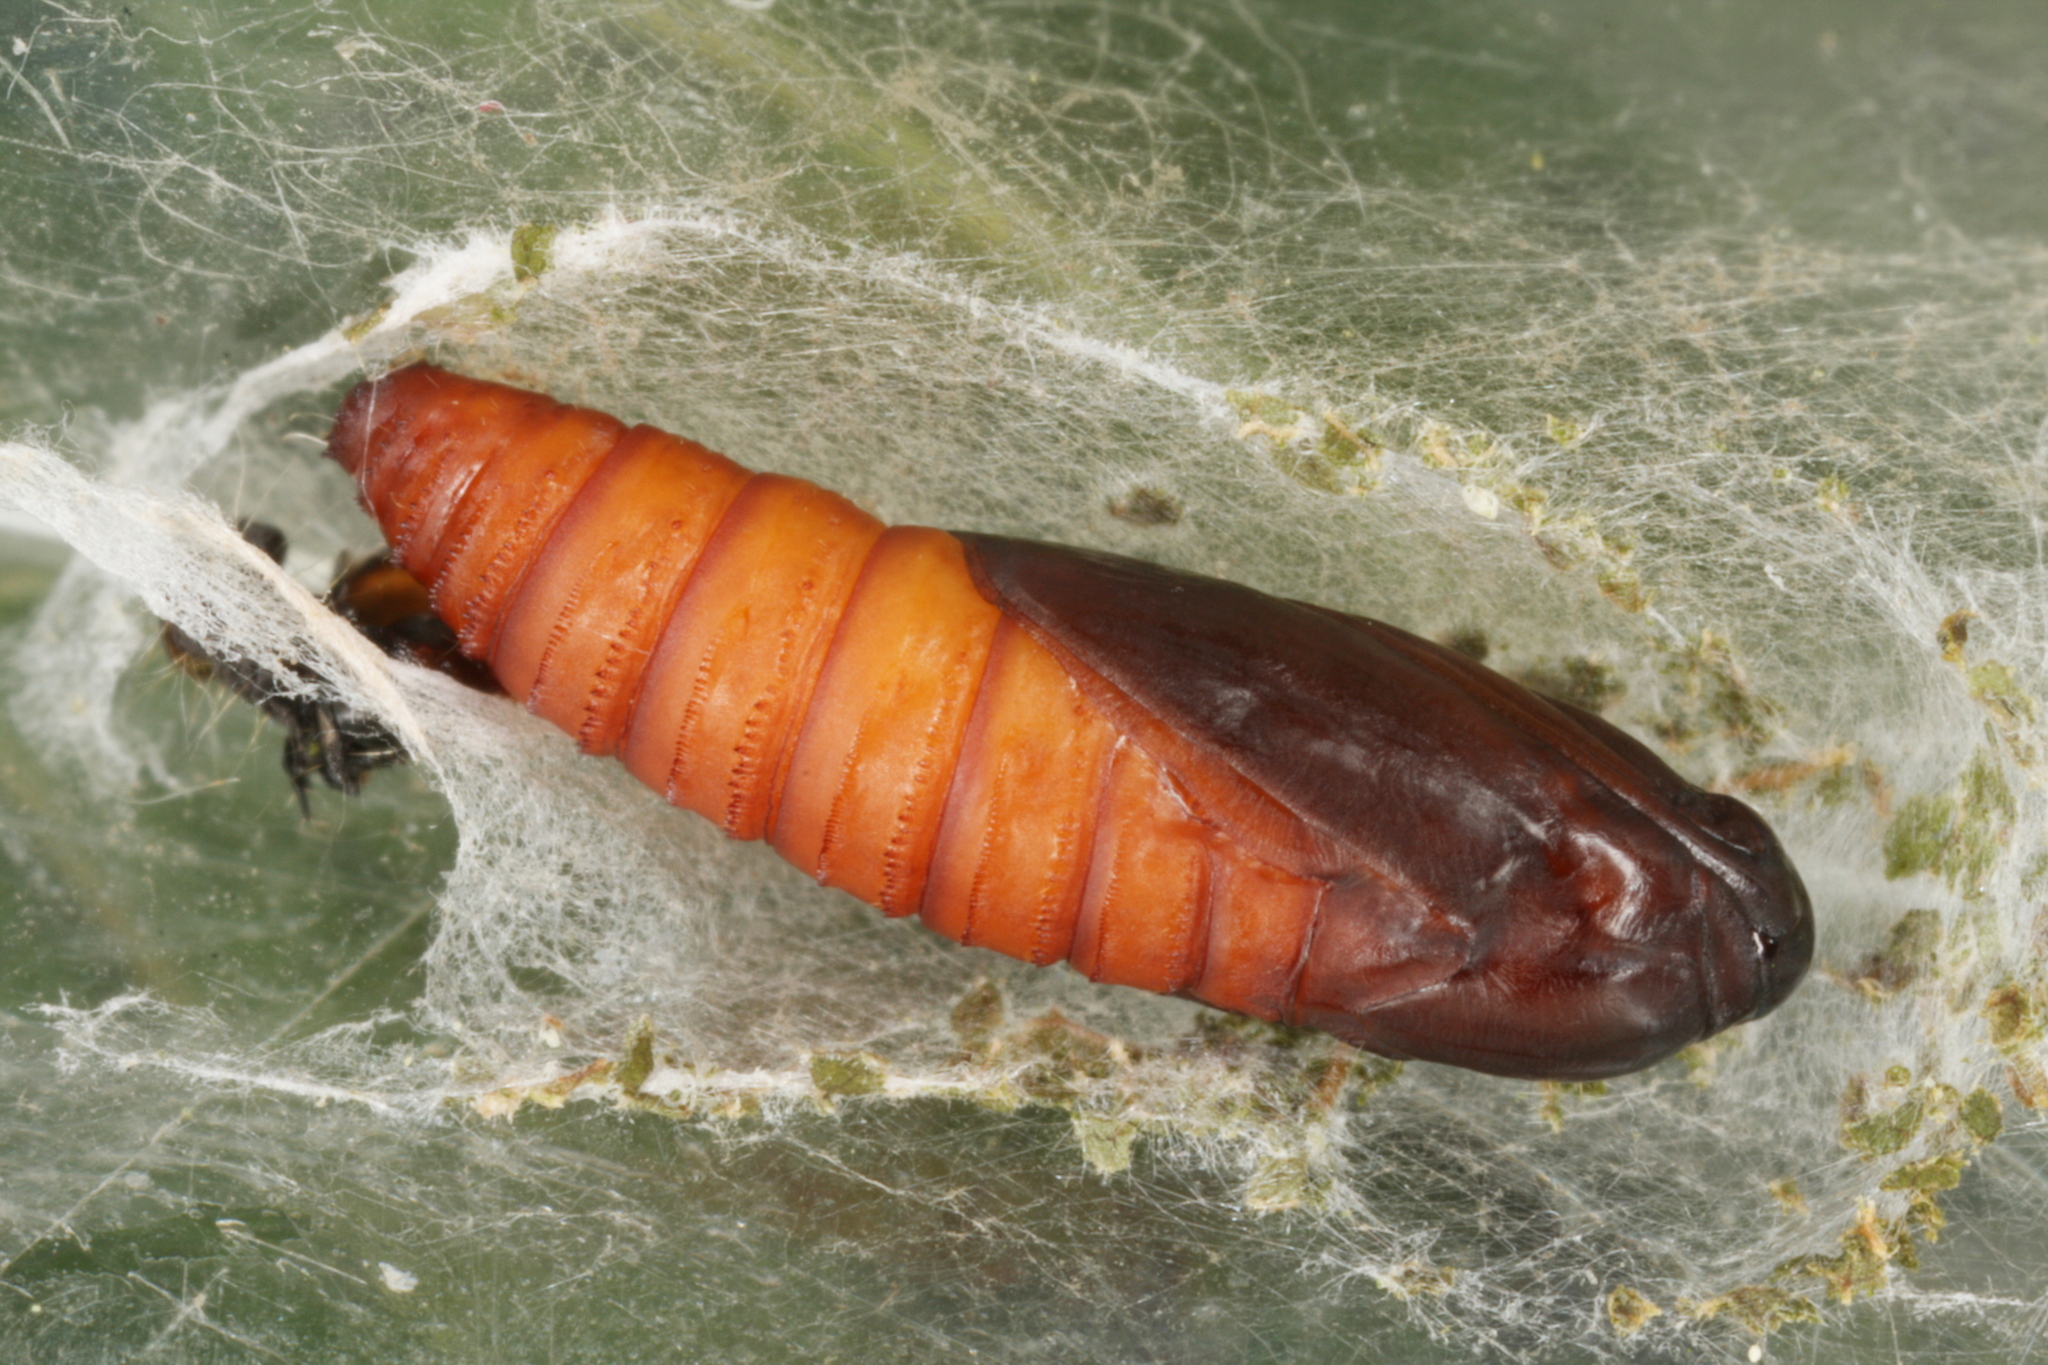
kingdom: Animalia
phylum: Arthropoda
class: Insecta
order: Lepidoptera
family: Tortricidae
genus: Spilonota
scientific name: Spilonota ocellana
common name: Bud moth
